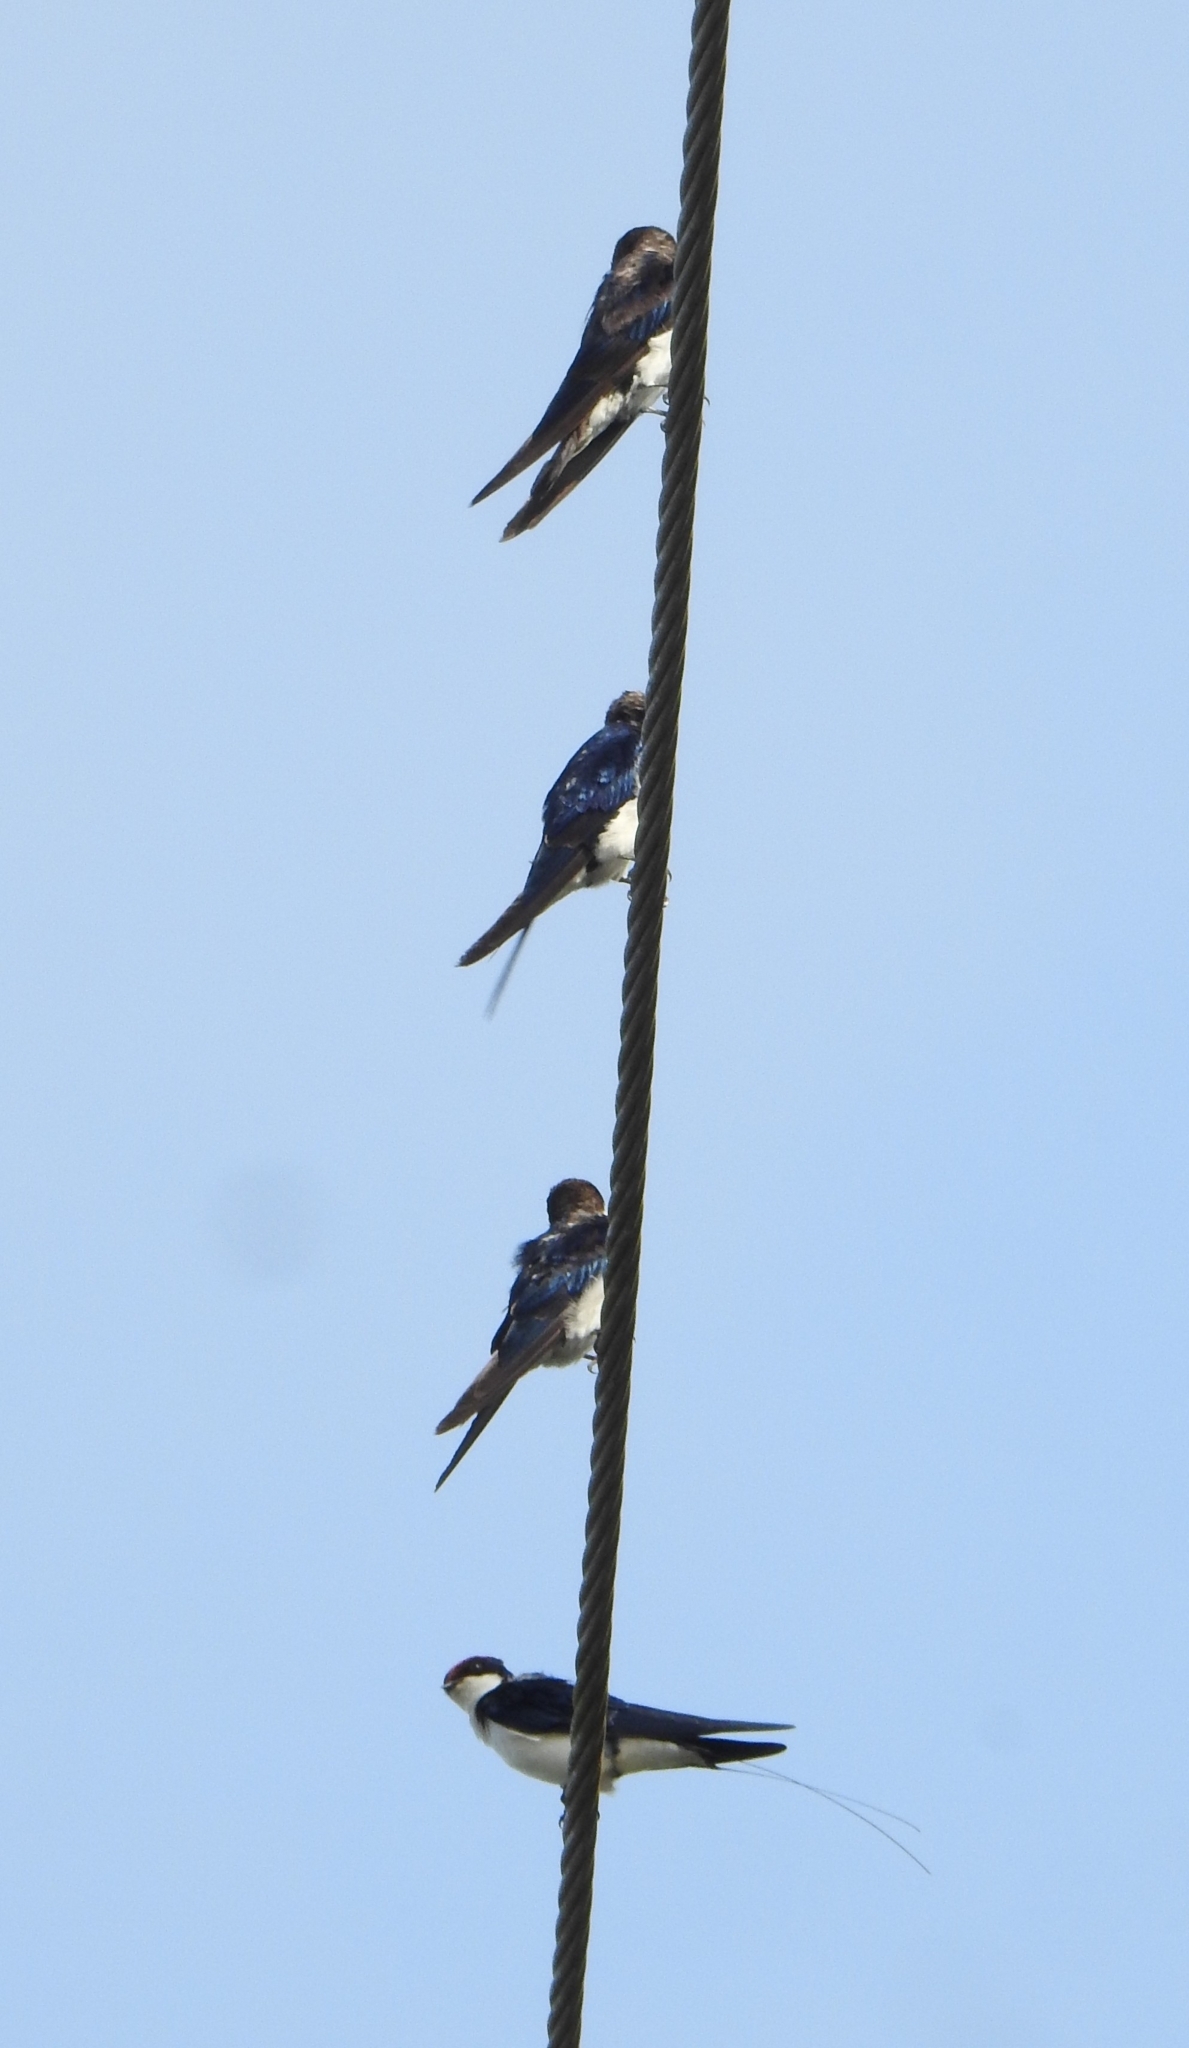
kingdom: Animalia
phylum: Chordata
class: Aves
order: Passeriformes
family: Hirundinidae
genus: Hirundo
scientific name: Hirundo smithii
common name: Wire-tailed swallow
